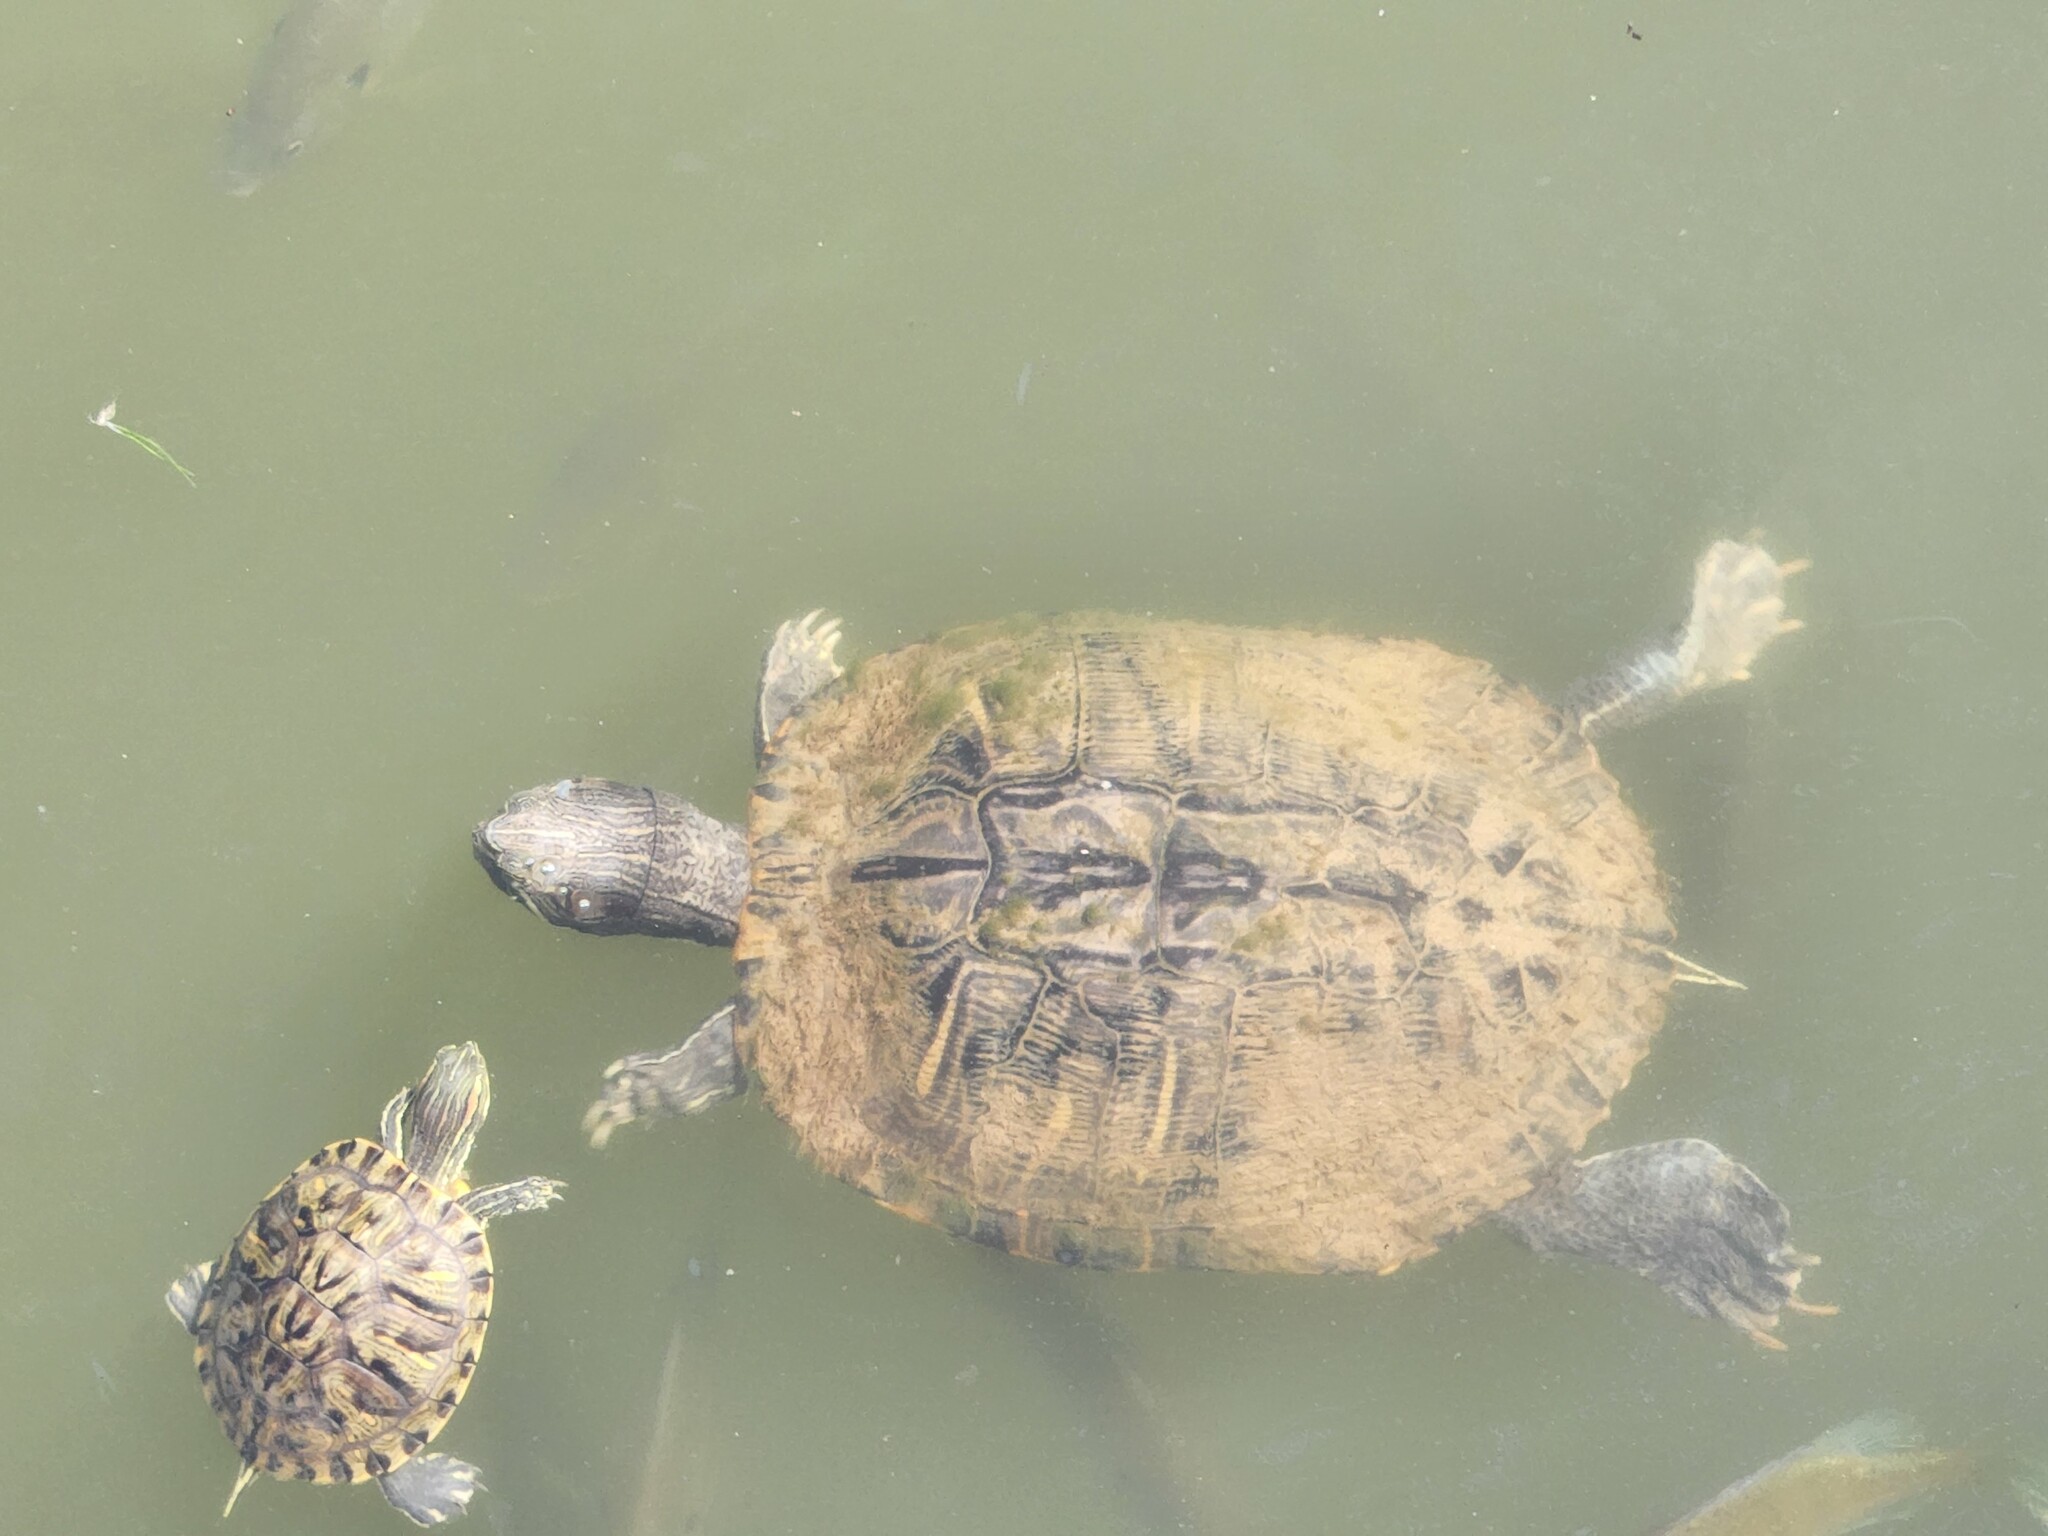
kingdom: Animalia
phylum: Chordata
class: Testudines
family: Emydidae
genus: Trachemys
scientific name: Trachemys scripta
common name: Slider
